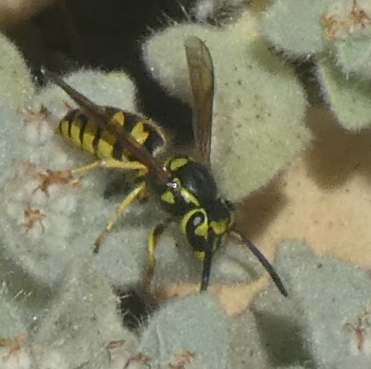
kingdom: Animalia
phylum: Arthropoda
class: Insecta
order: Hymenoptera
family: Vespidae
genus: Vespula
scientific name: Vespula pensylvanica
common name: Western yellowjacket
